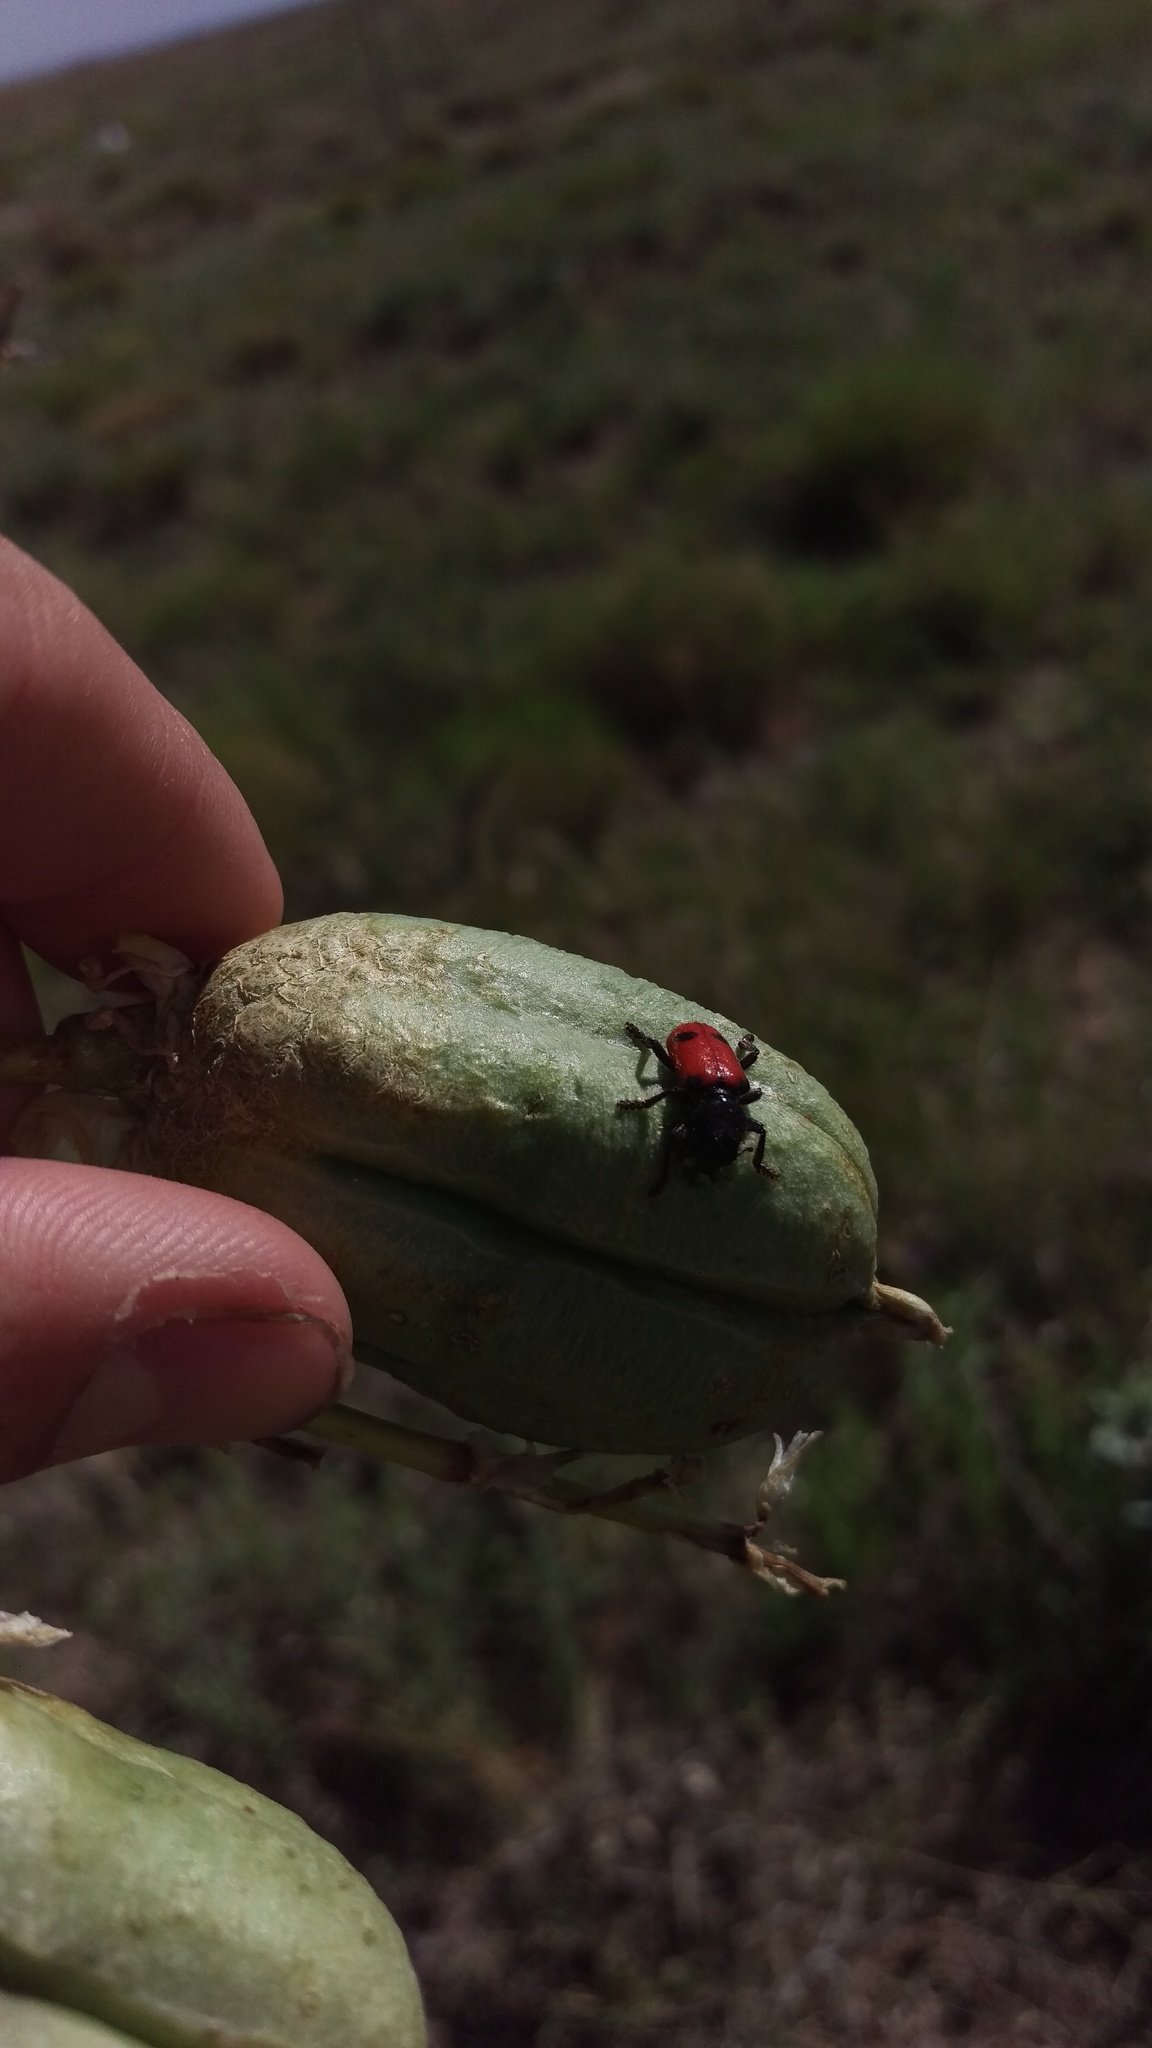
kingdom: Animalia
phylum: Arthropoda
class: Insecta
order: Coleoptera
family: Cleridae
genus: Enoclerus
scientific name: Enoclerus
